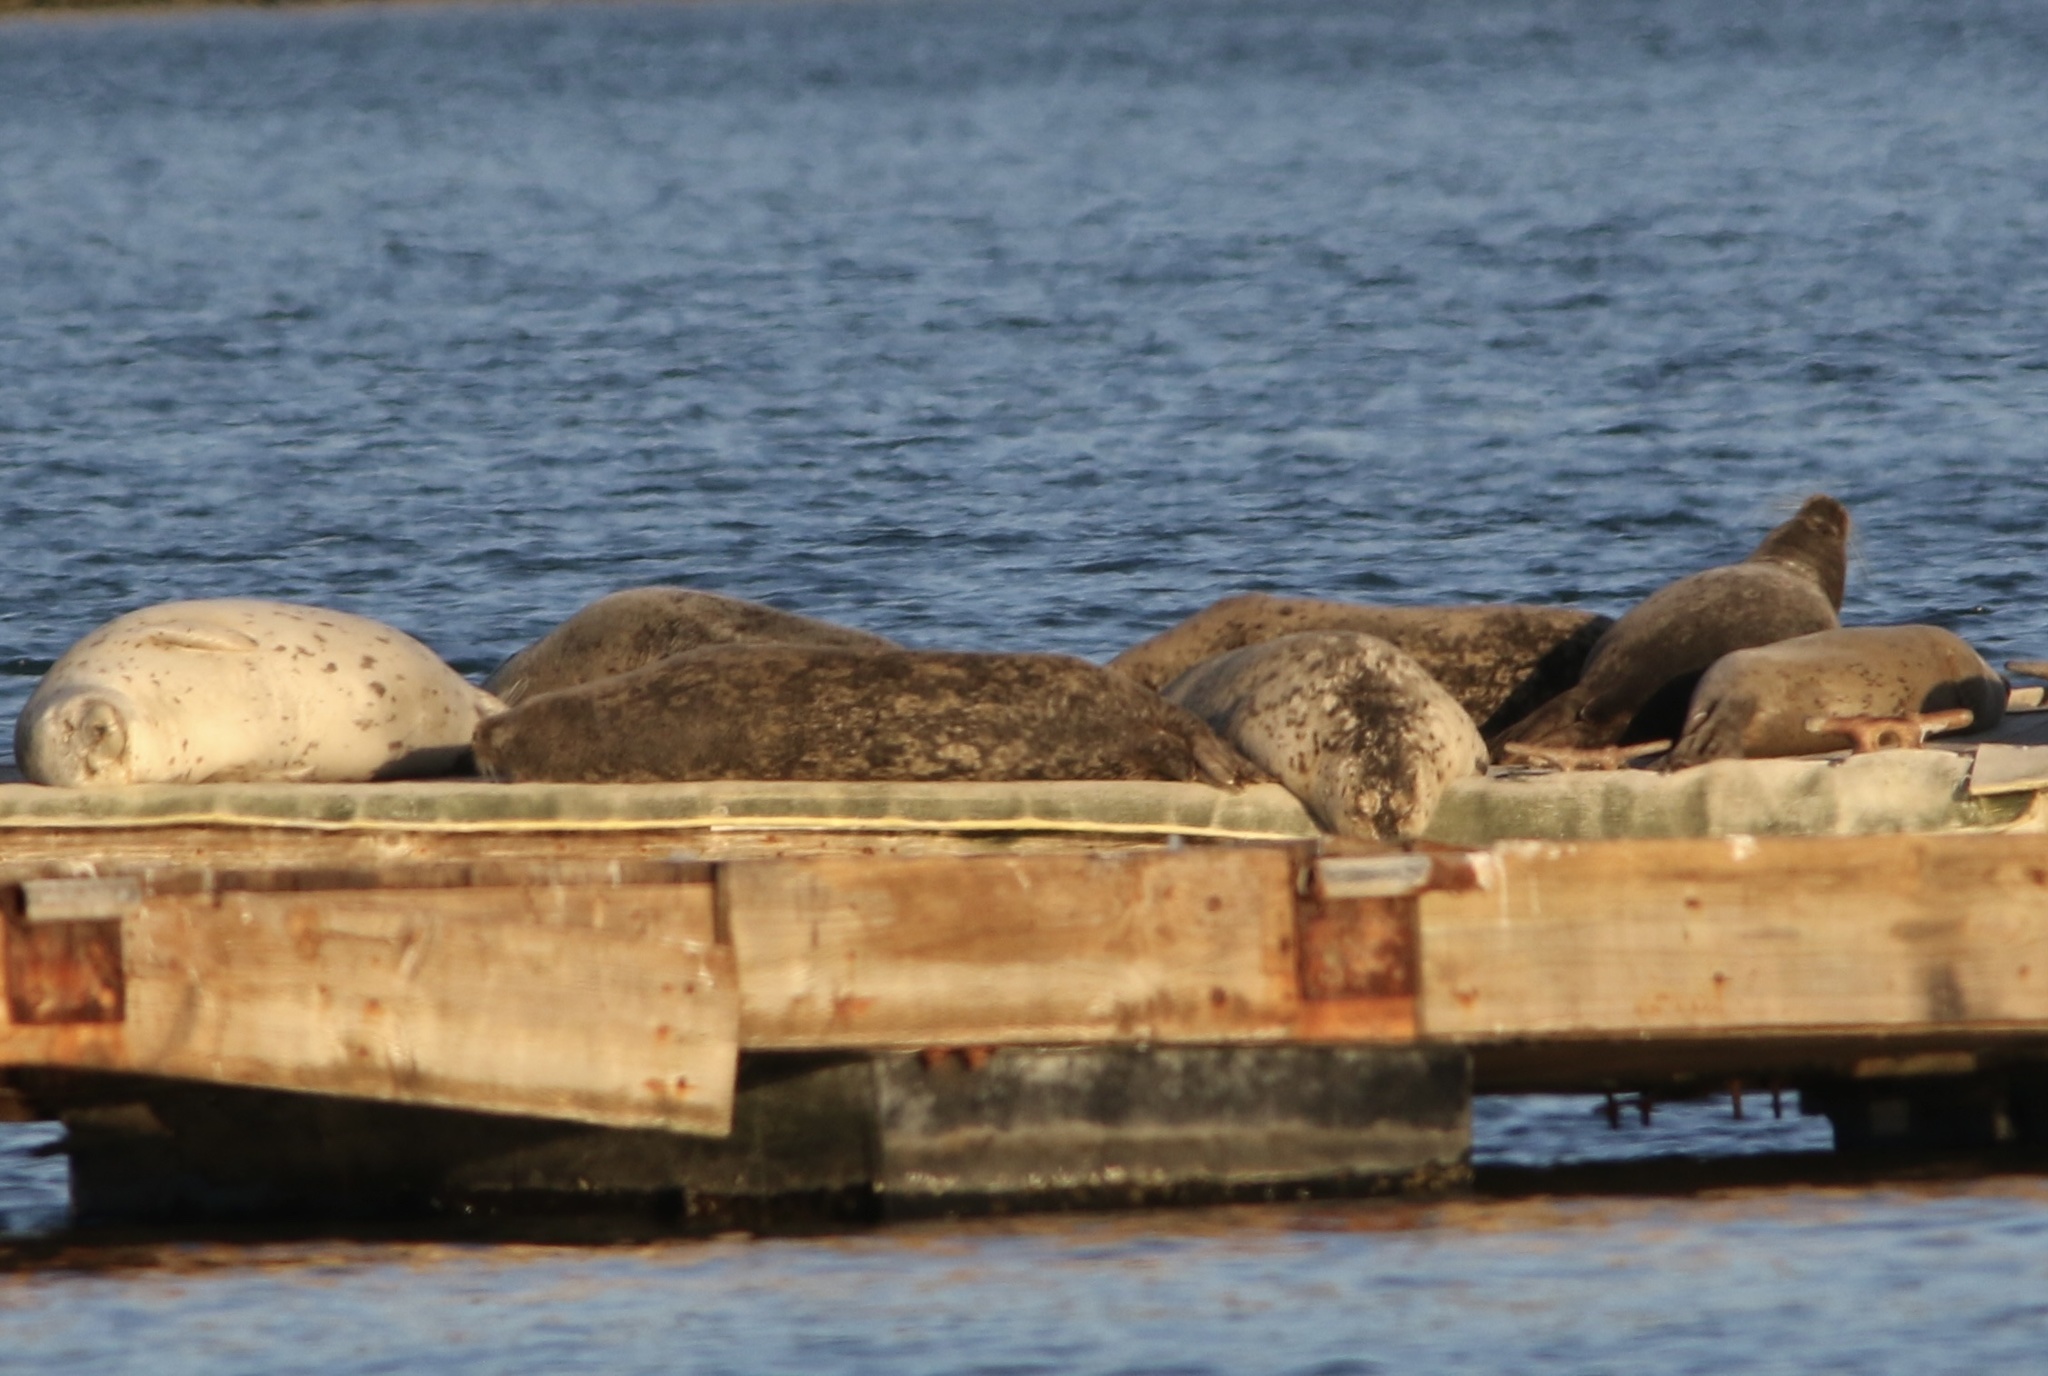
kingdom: Animalia
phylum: Chordata
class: Mammalia
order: Carnivora
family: Phocidae
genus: Phoca
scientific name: Phoca vitulina
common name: Harbor seal
